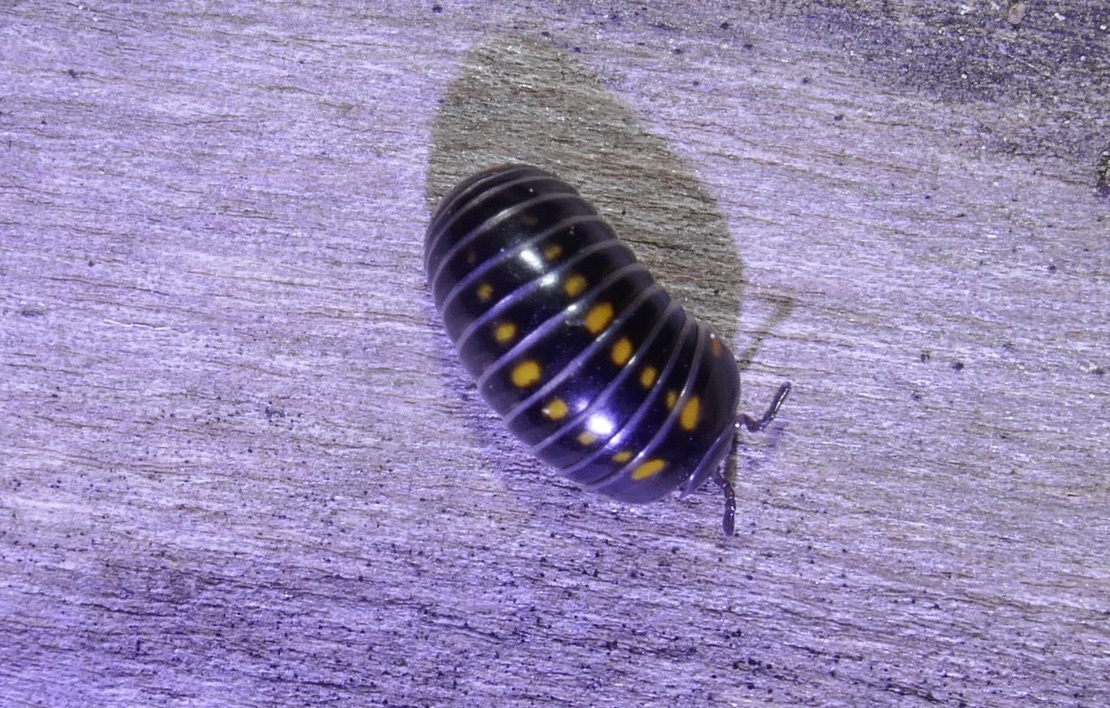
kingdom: Animalia
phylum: Arthropoda
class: Diplopoda
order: Glomerida
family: Glomeridae
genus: Glomeris
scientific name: Glomeris pustulata
